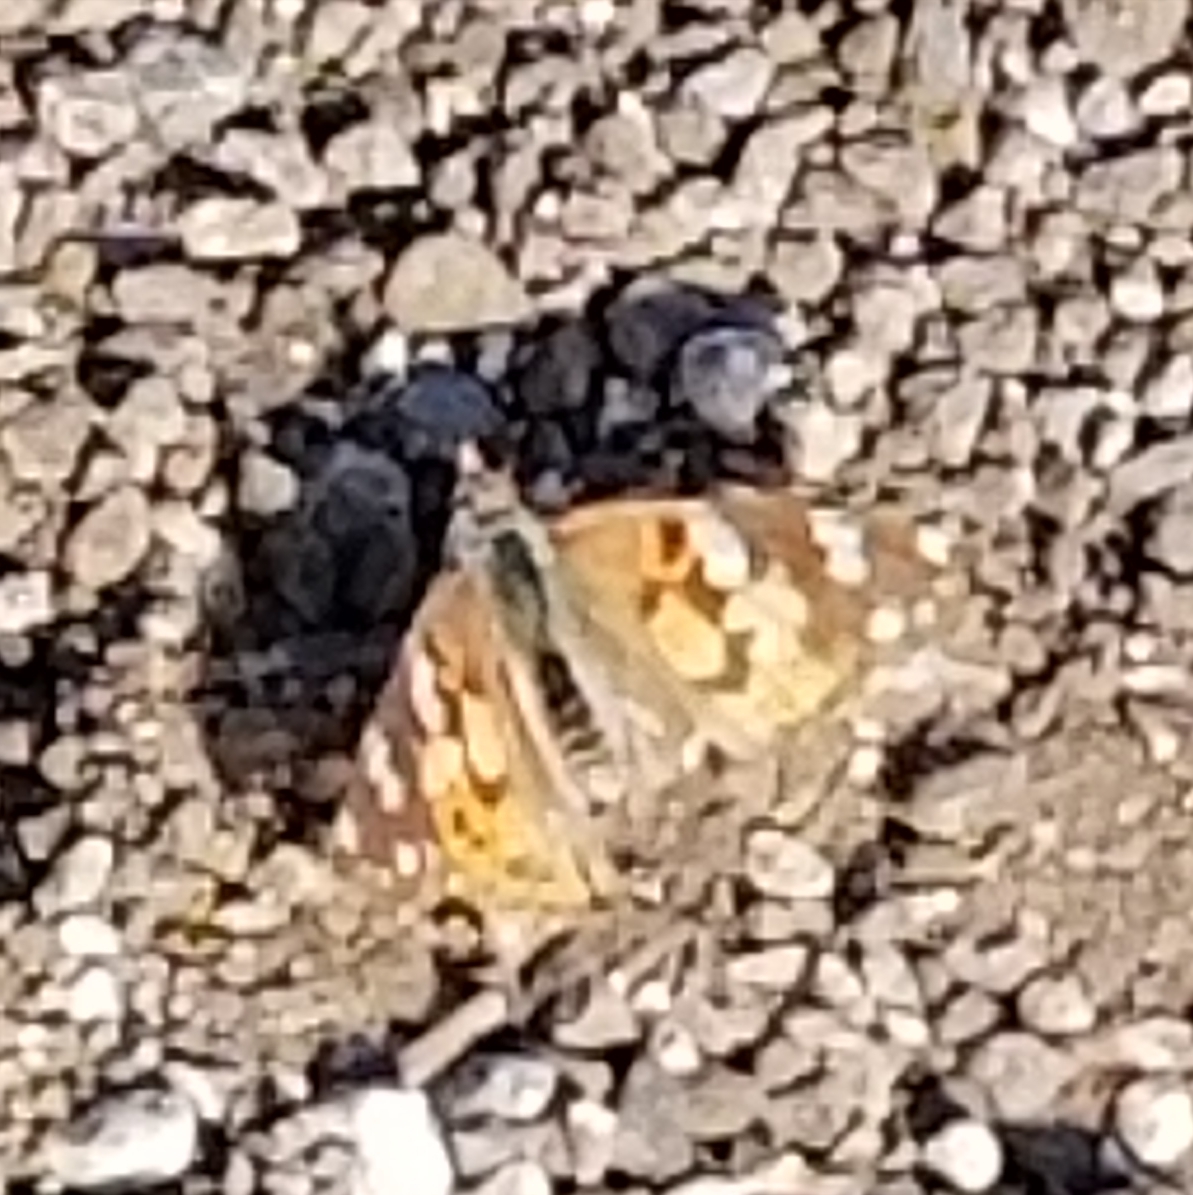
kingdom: Animalia
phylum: Arthropoda
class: Insecta
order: Lepidoptera
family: Nymphalidae
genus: Vanessa
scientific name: Vanessa cardui
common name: Painted lady
